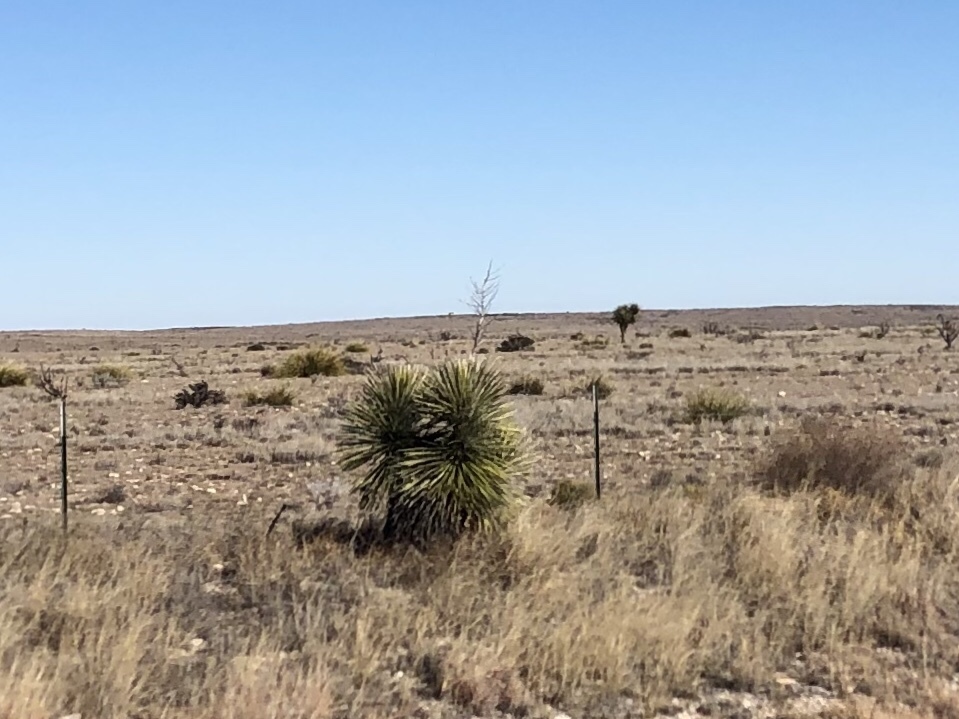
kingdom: Plantae
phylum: Tracheophyta
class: Liliopsida
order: Asparagales
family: Asparagaceae
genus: Yucca
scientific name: Yucca elata
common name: Palmella
